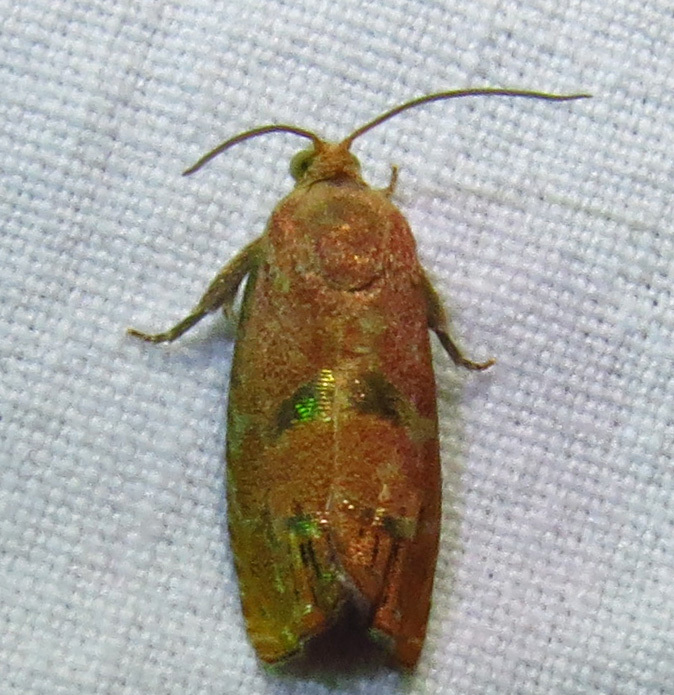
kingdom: Animalia
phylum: Arthropoda
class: Insecta
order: Lepidoptera
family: Tortricidae
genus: Cydia
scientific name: Cydia latiferreana
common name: Filbertworm moth
